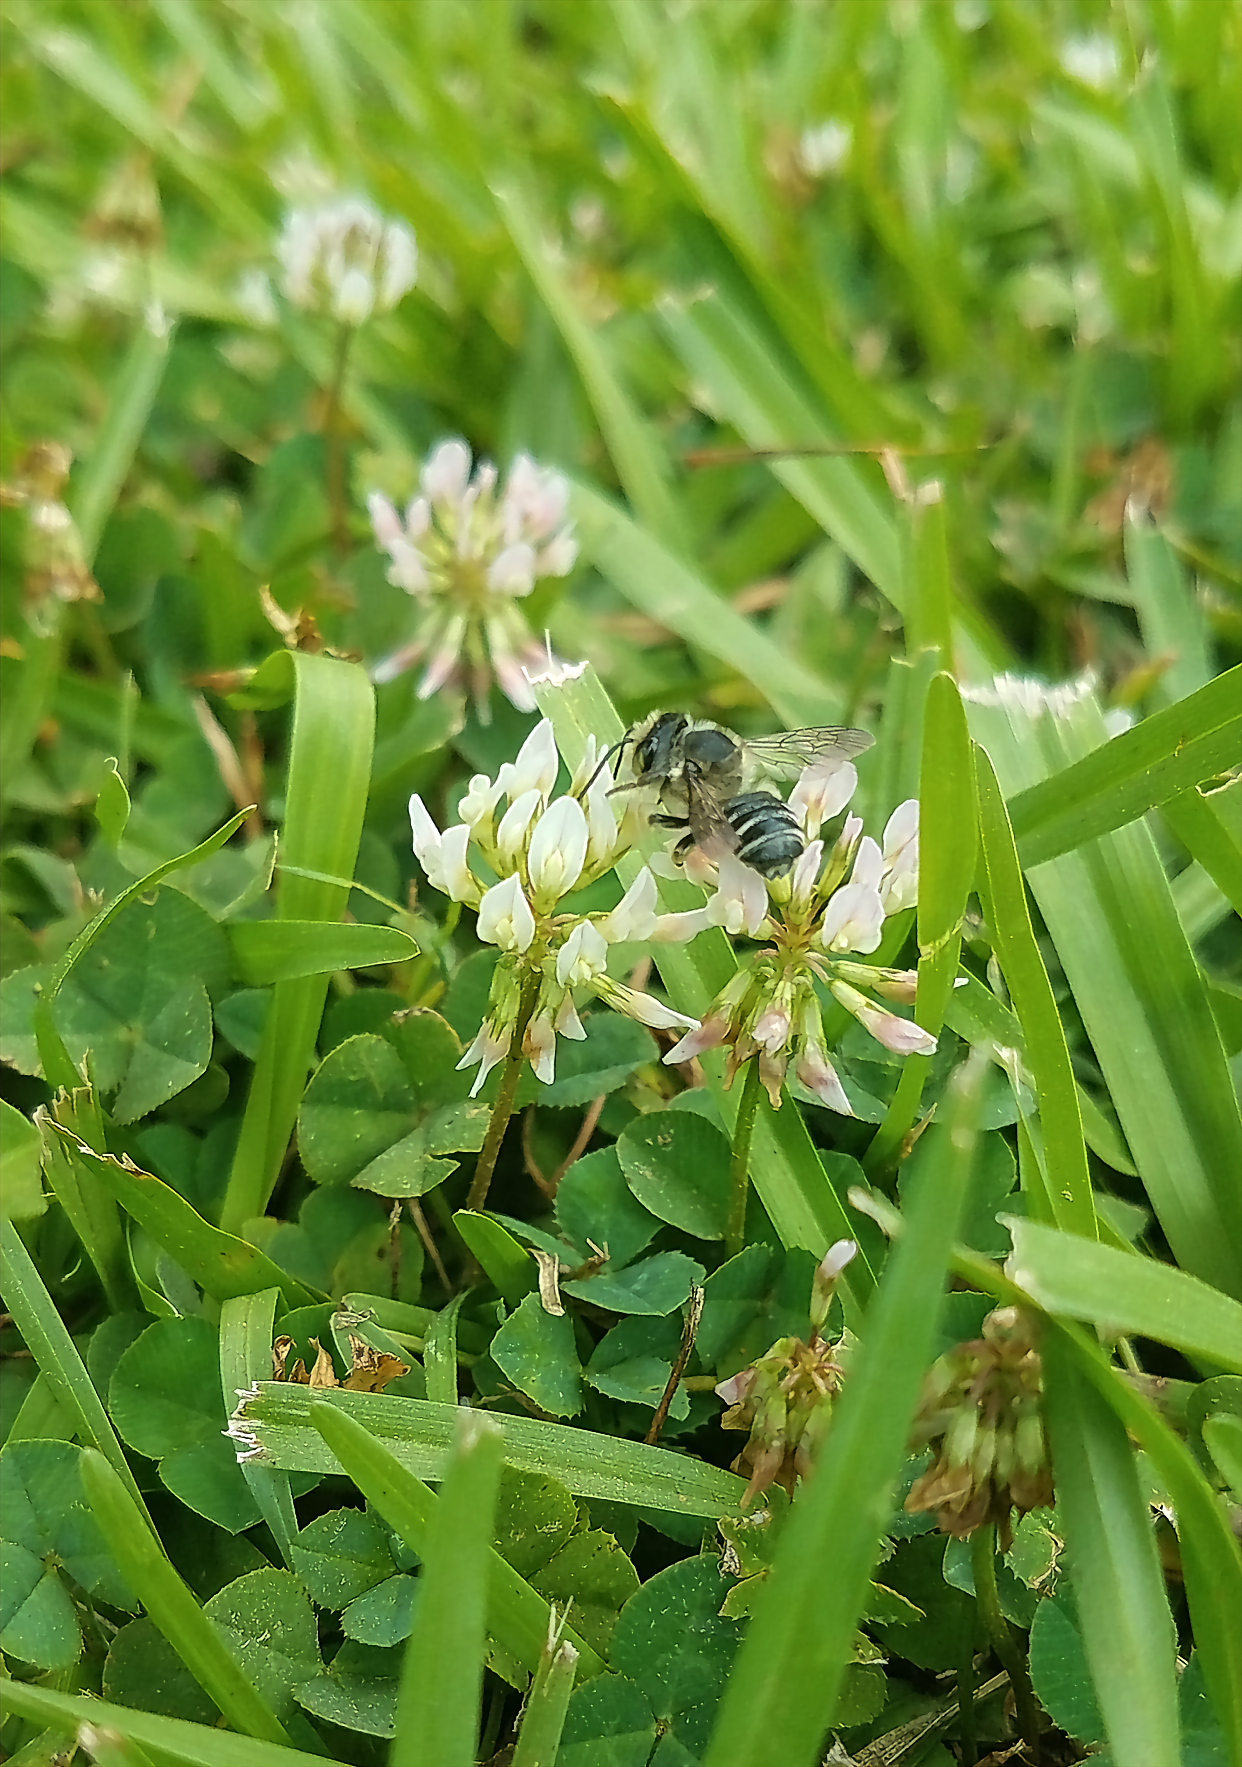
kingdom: Animalia
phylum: Arthropoda
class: Insecta
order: Hymenoptera
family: Megachilidae
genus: Megachile
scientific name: Megachile mendica
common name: Flat-tailed leafcutter
